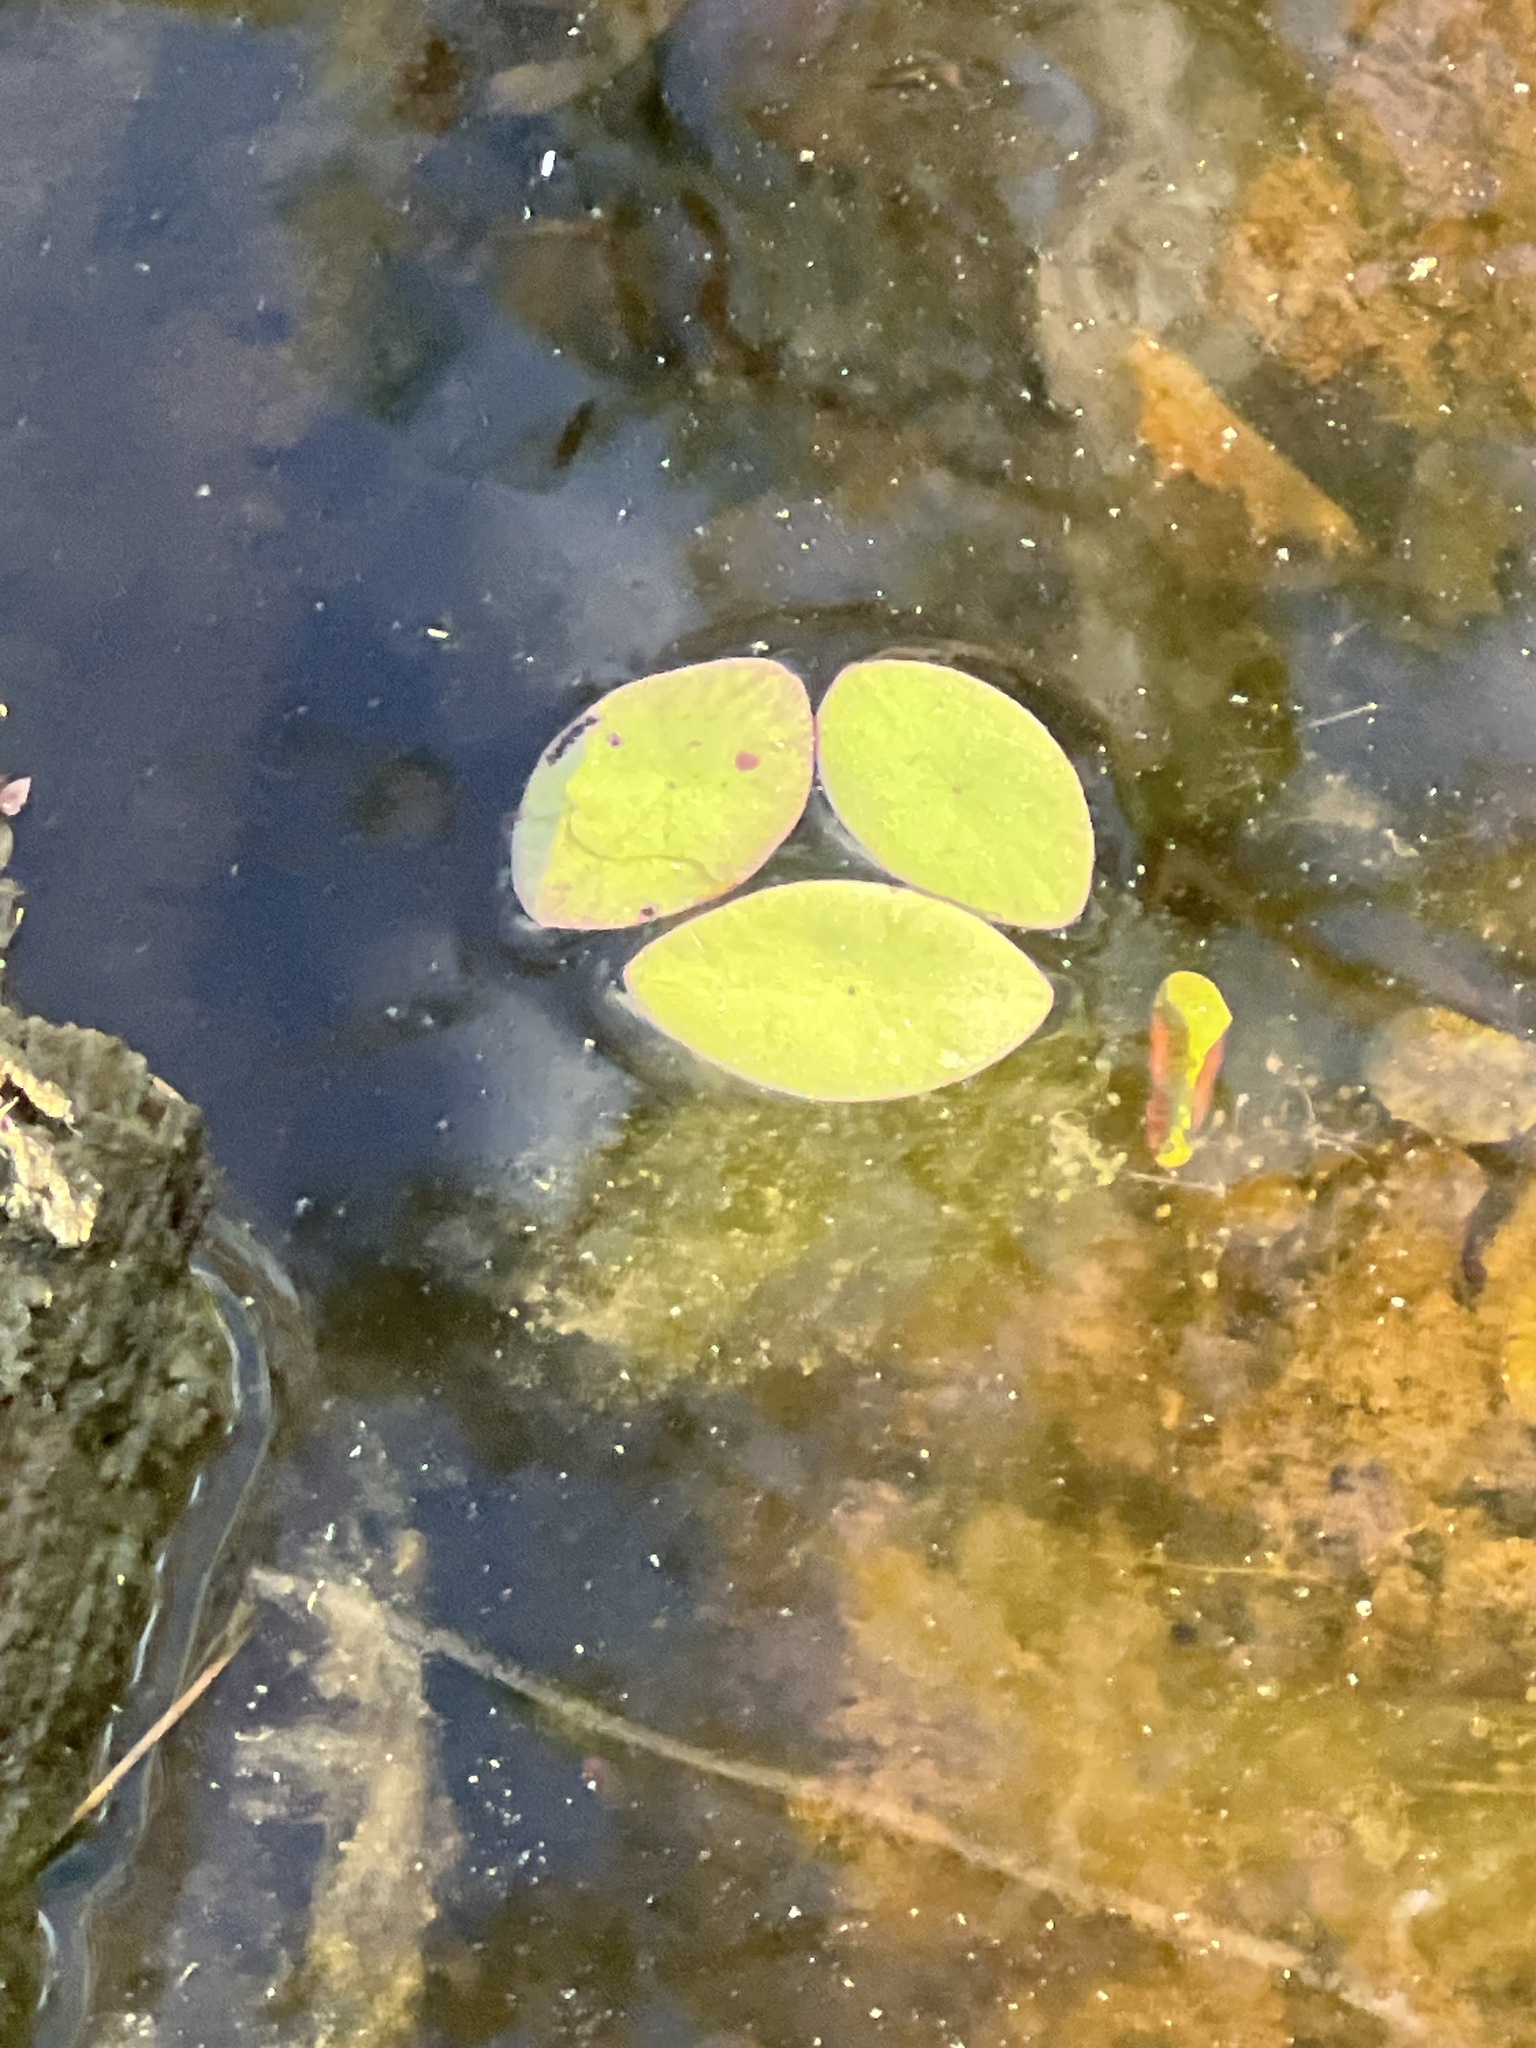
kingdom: Plantae
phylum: Tracheophyta
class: Magnoliopsida
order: Nymphaeales
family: Cabombaceae
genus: Brasenia
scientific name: Brasenia schreberi
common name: Water-shield
